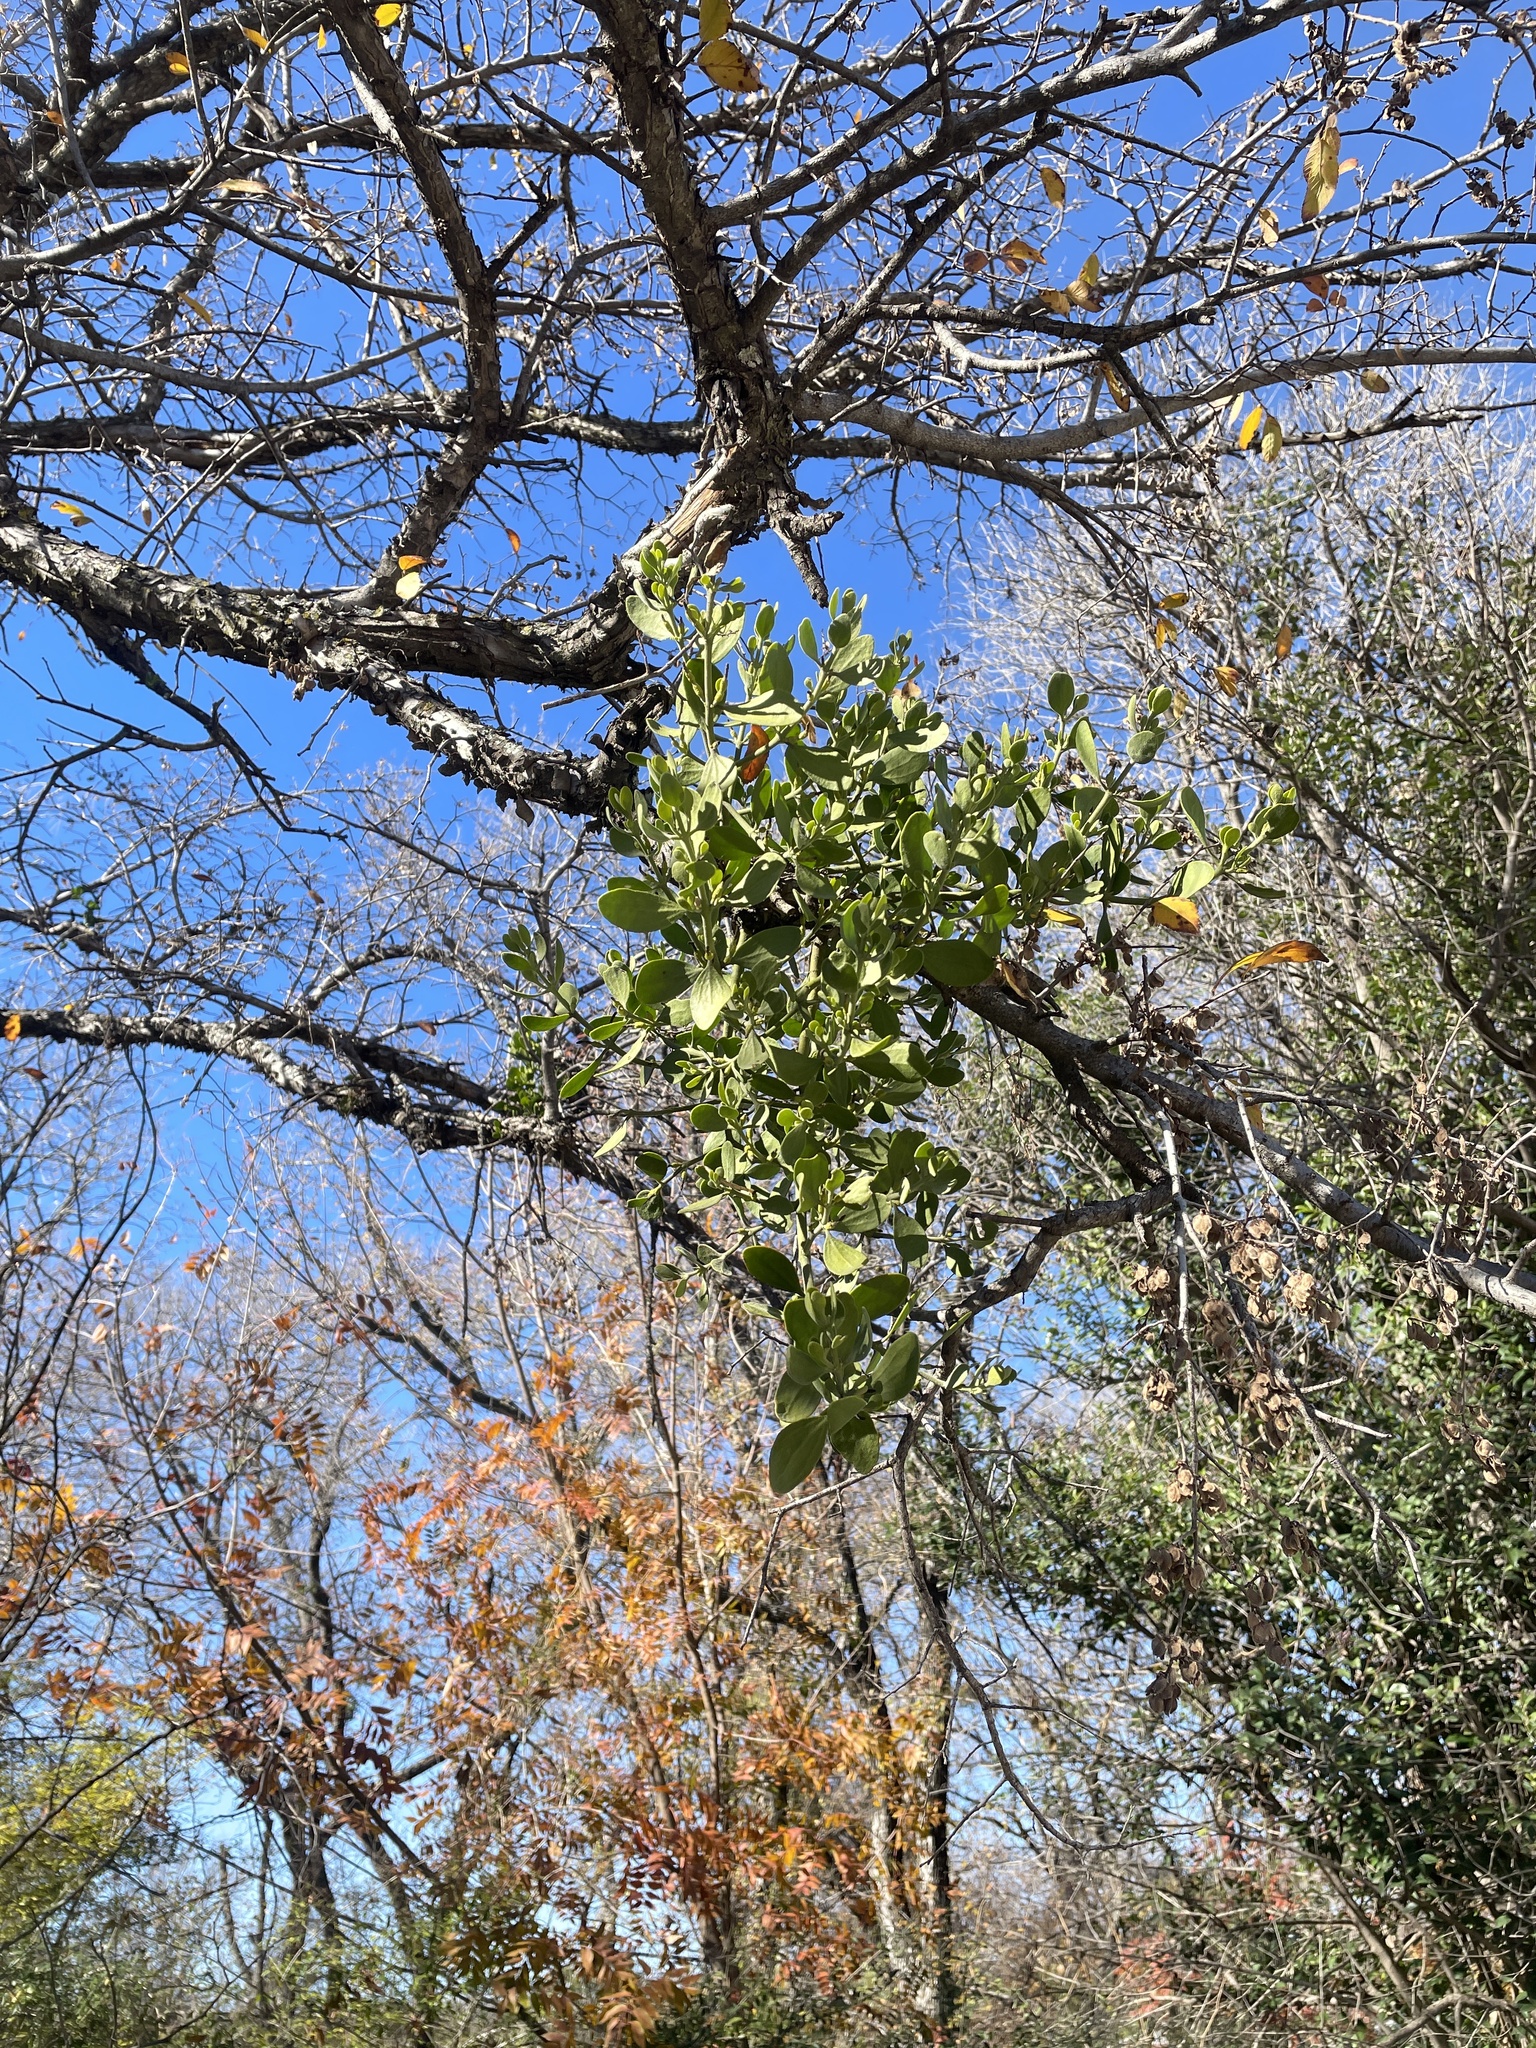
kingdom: Plantae
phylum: Tracheophyta
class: Magnoliopsida
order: Santalales
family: Viscaceae
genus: Phoradendron
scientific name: Phoradendron leucarpum
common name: Pacific mistletoe
